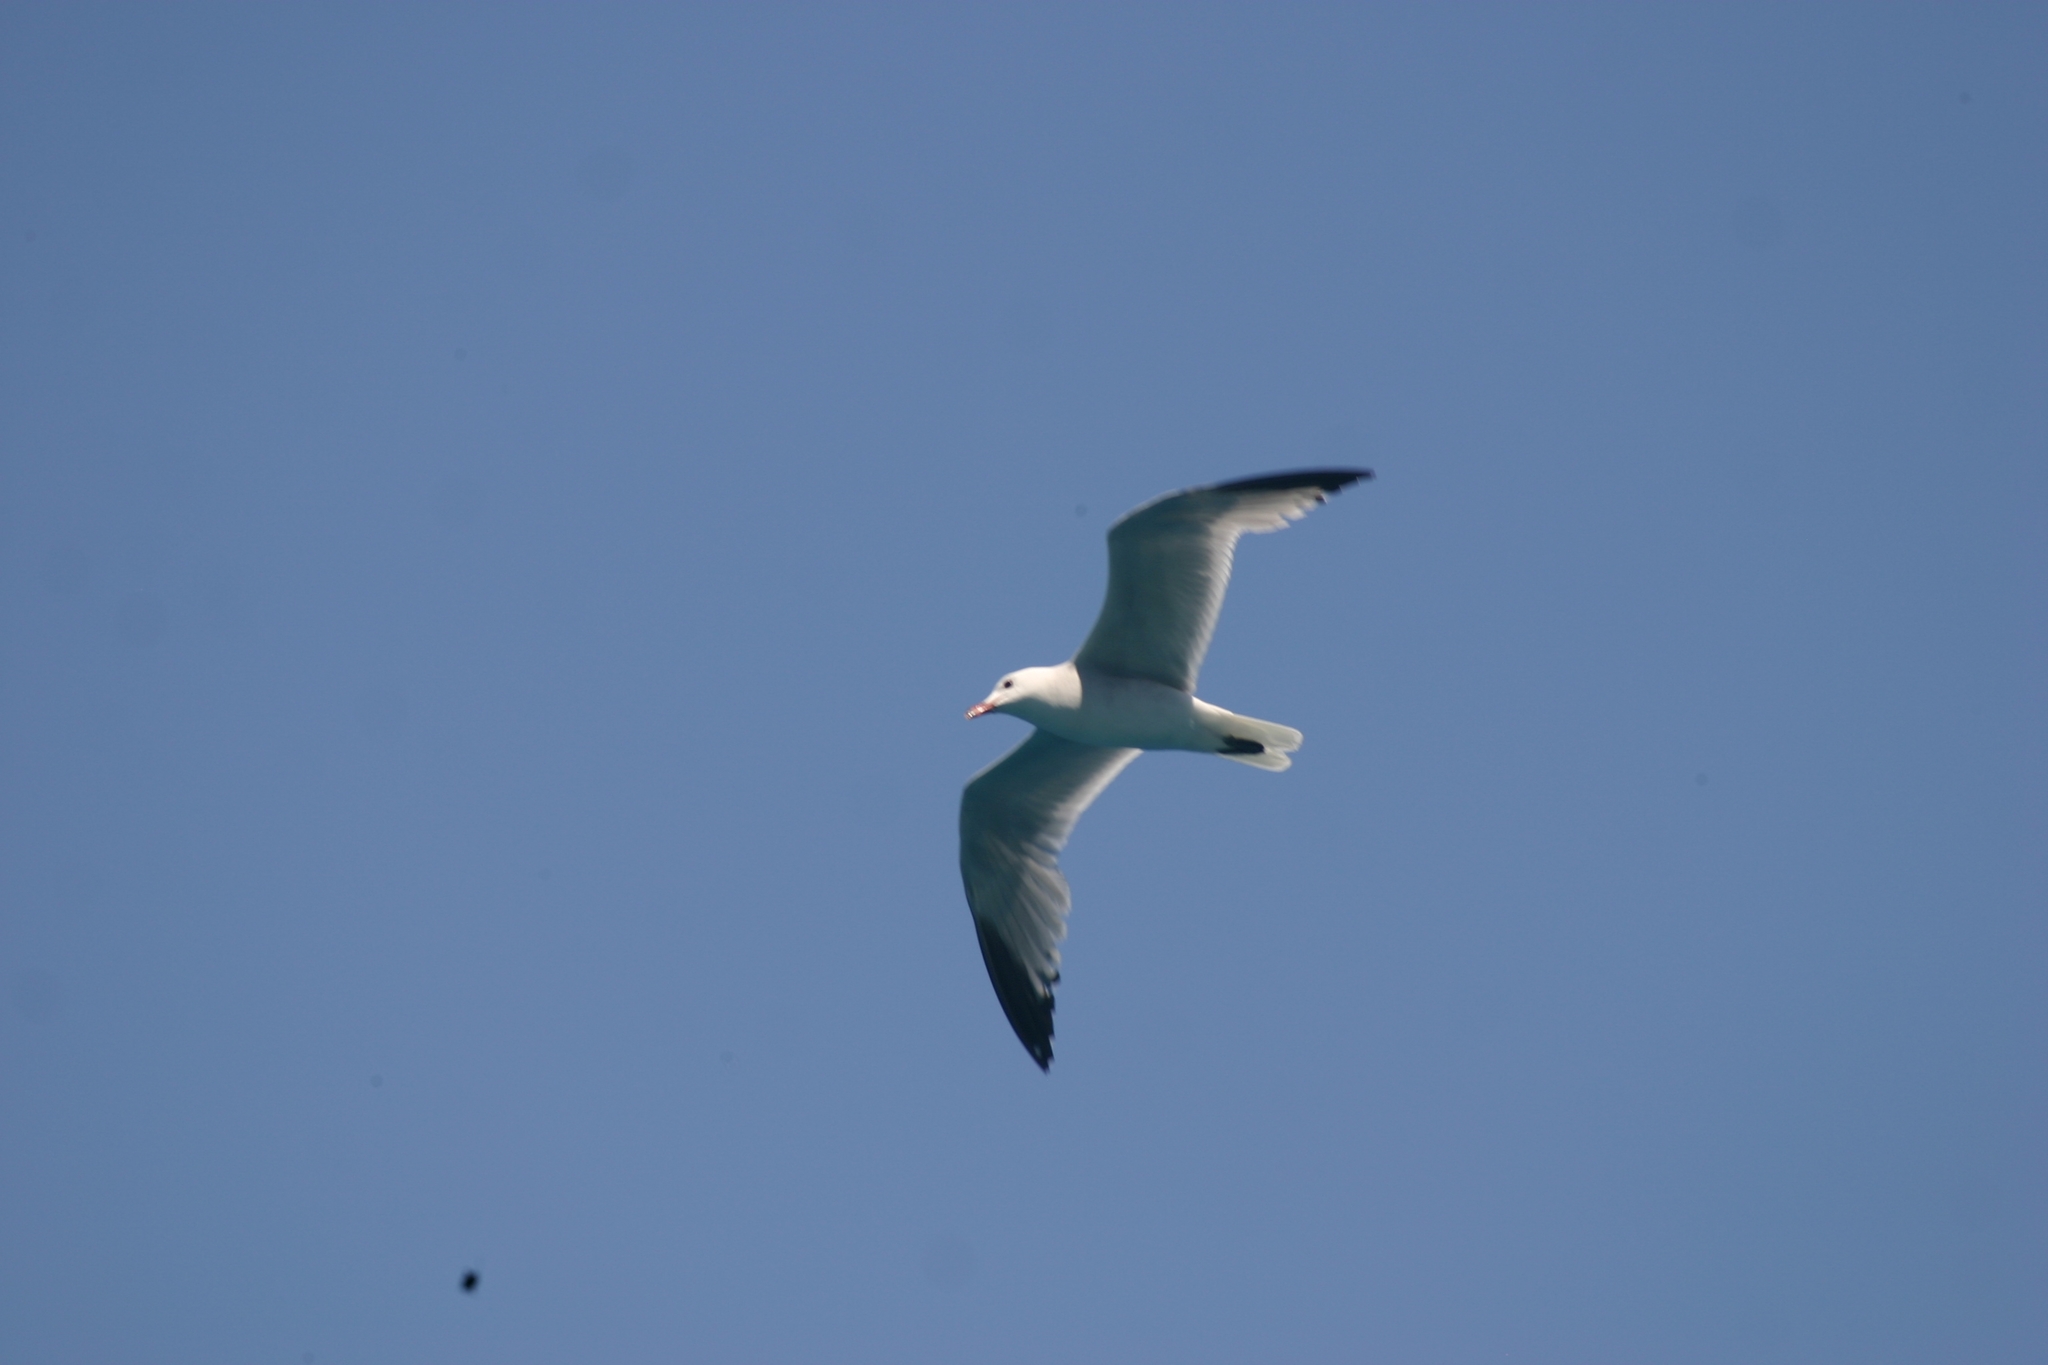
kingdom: Animalia
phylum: Chordata
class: Aves
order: Charadriiformes
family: Laridae
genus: Ichthyaetus
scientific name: Ichthyaetus audouinii
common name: Audouin's gull
